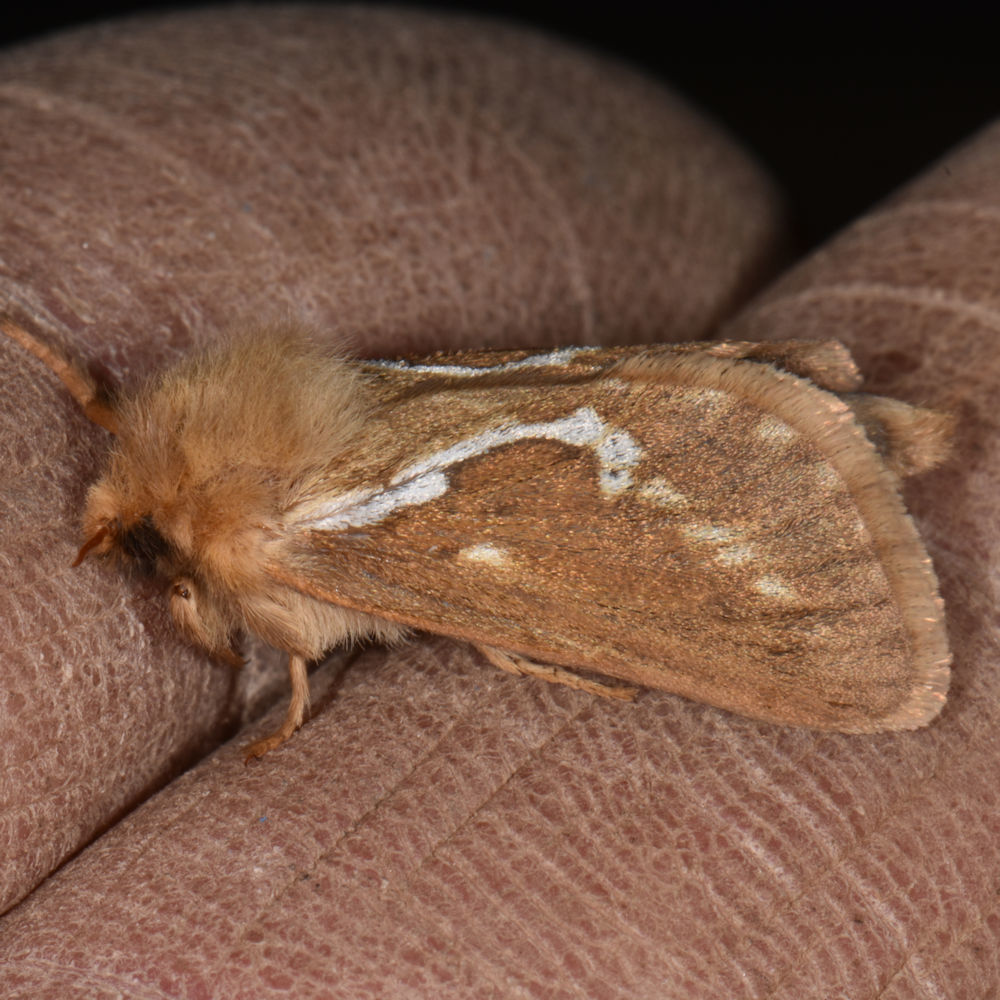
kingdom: Animalia
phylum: Arthropoda
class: Insecta
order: Lepidoptera
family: Hepialidae
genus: Korscheltellus
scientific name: Korscheltellus lupulina
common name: Common swift
